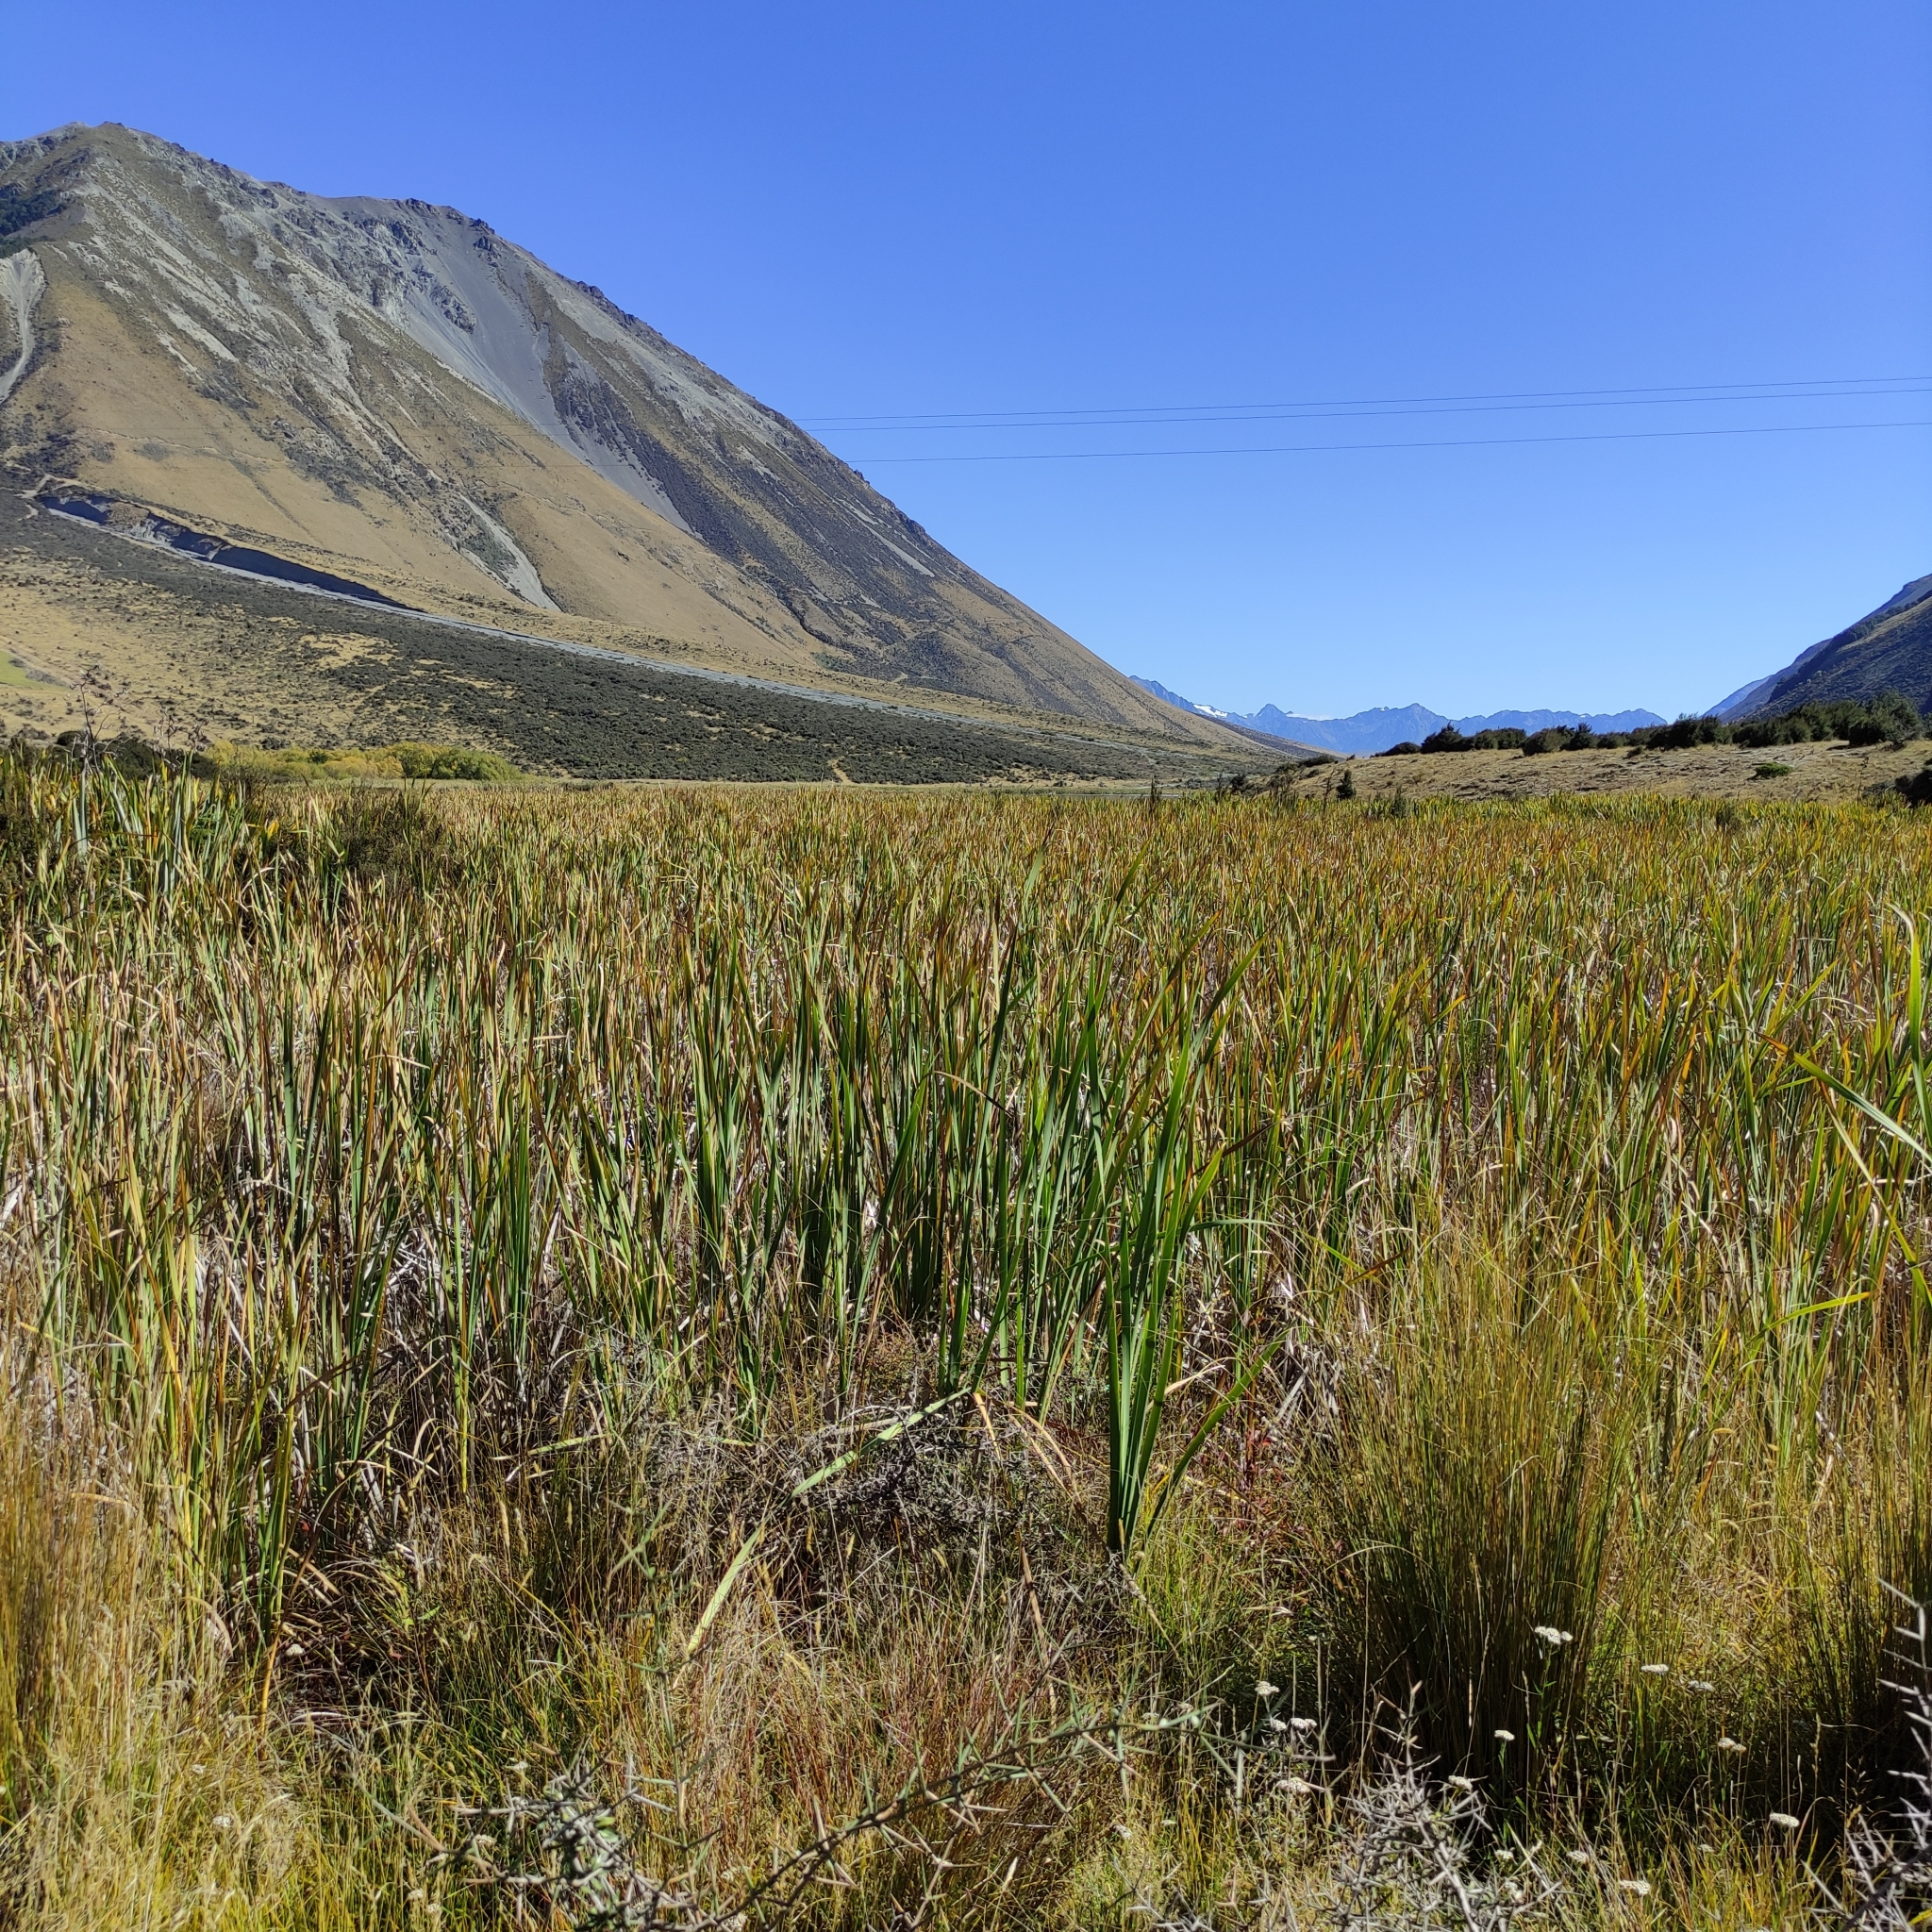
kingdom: Plantae
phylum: Tracheophyta
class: Liliopsida
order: Poales
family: Typhaceae
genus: Typha
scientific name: Typha orientalis
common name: Bullrush
